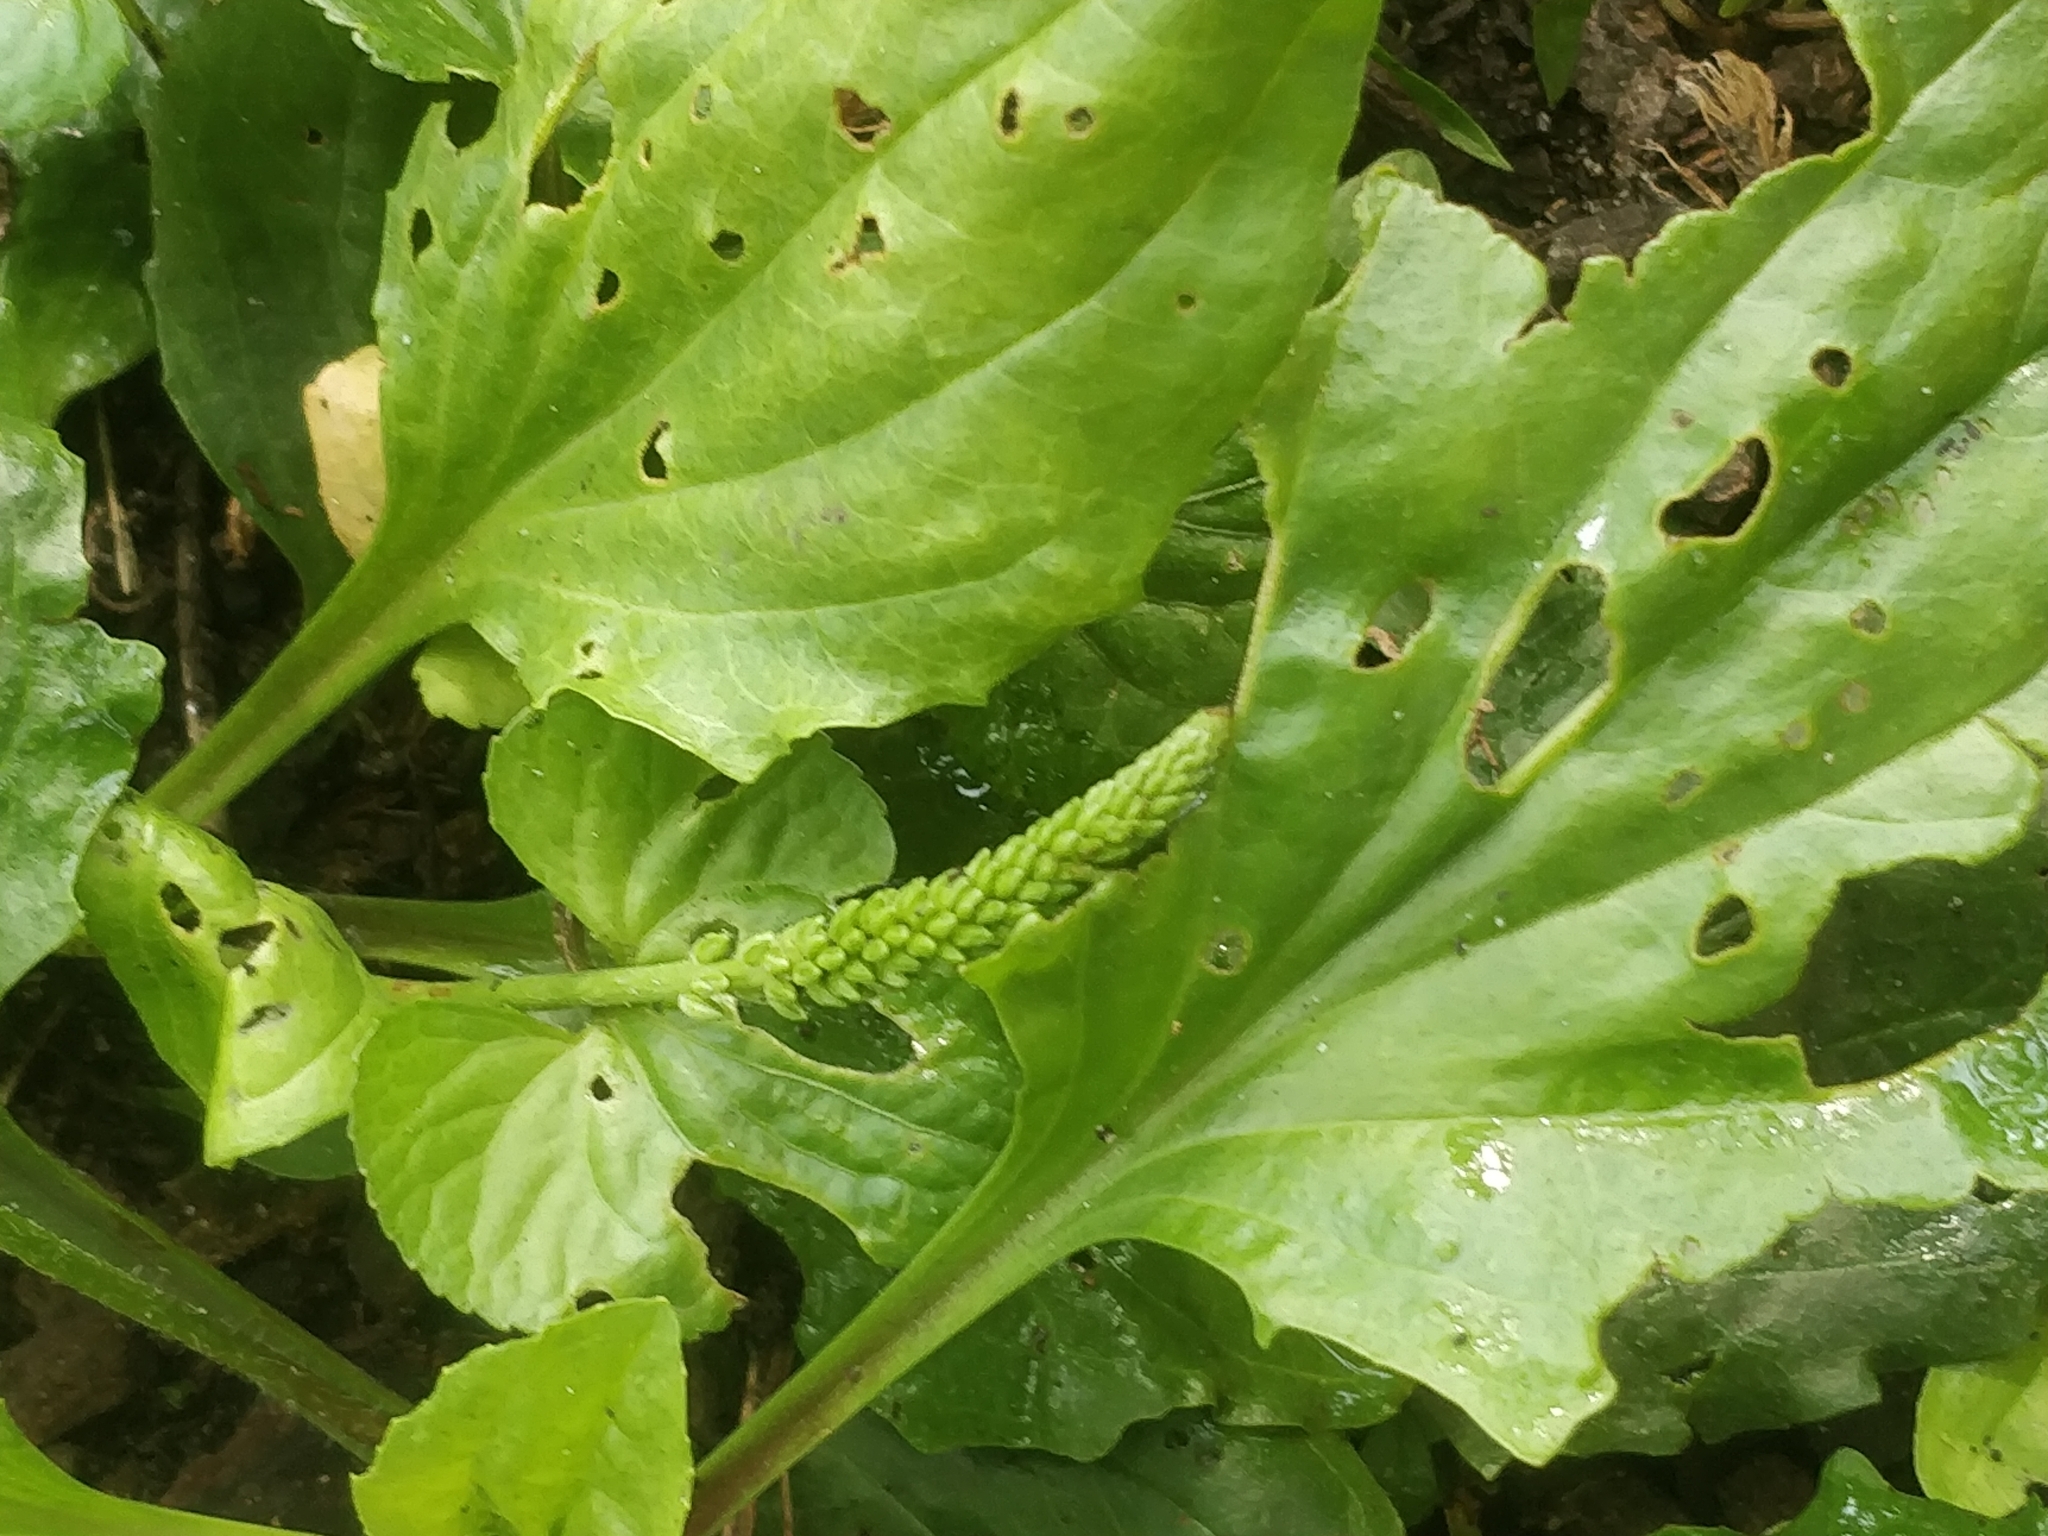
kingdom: Plantae
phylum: Tracheophyta
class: Magnoliopsida
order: Lamiales
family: Plantaginaceae
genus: Plantago
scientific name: Plantago rugelii
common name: American plantain
